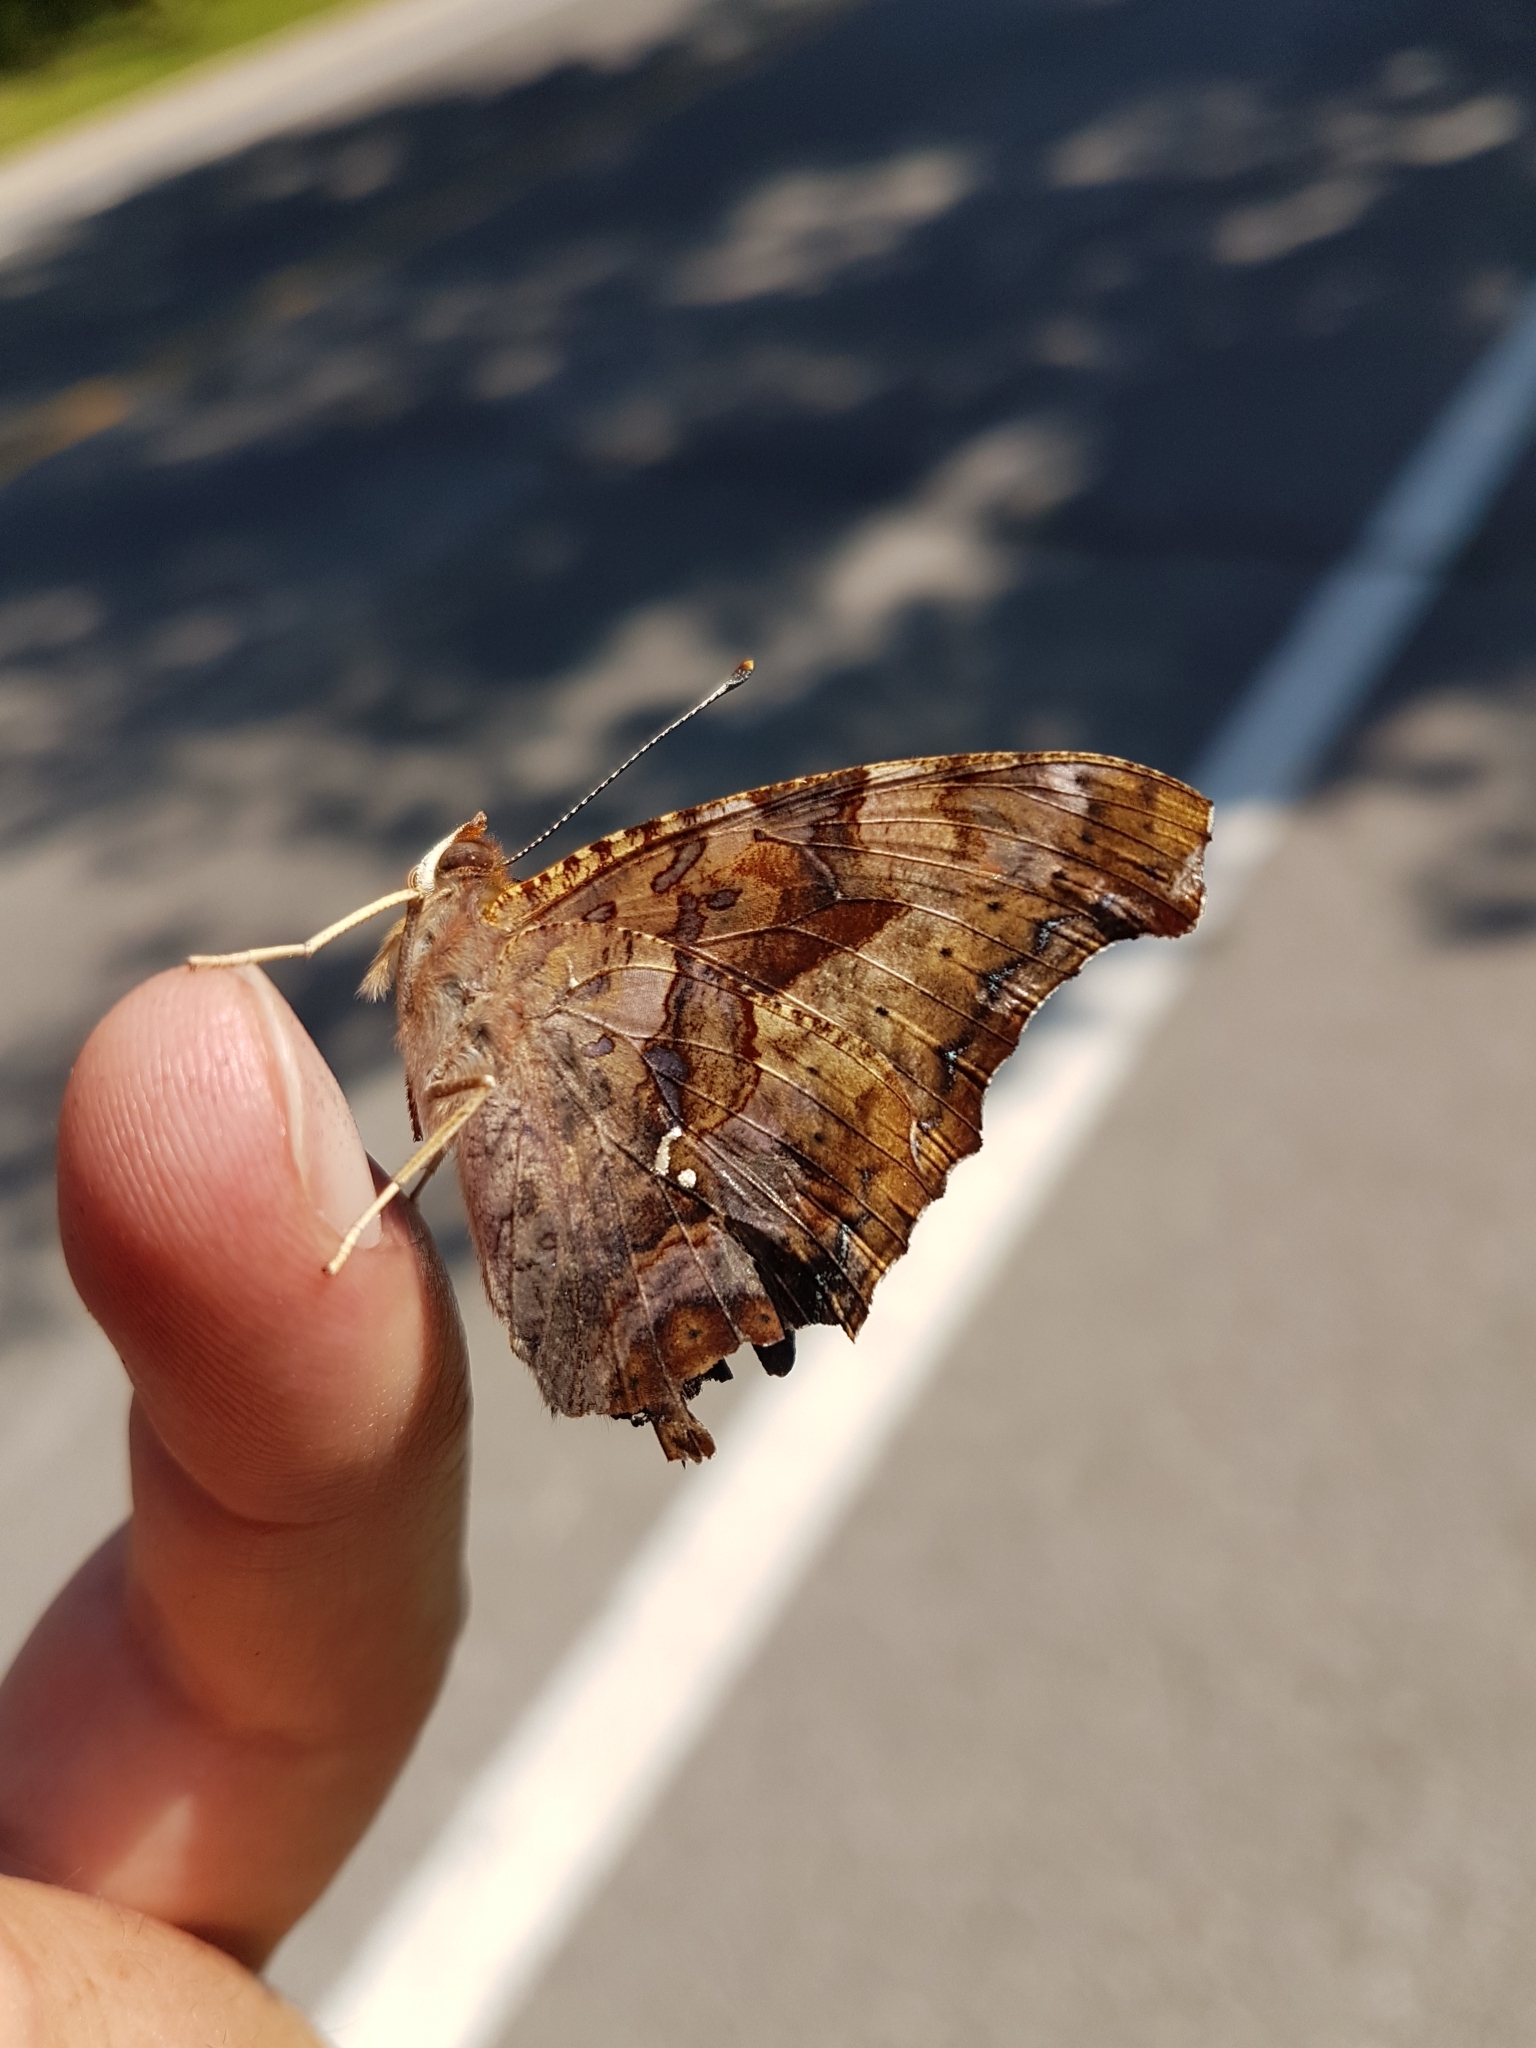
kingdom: Animalia
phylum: Arthropoda
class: Insecta
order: Lepidoptera
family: Nymphalidae
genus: Polygonia
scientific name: Polygonia interrogationis
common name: Question mark
